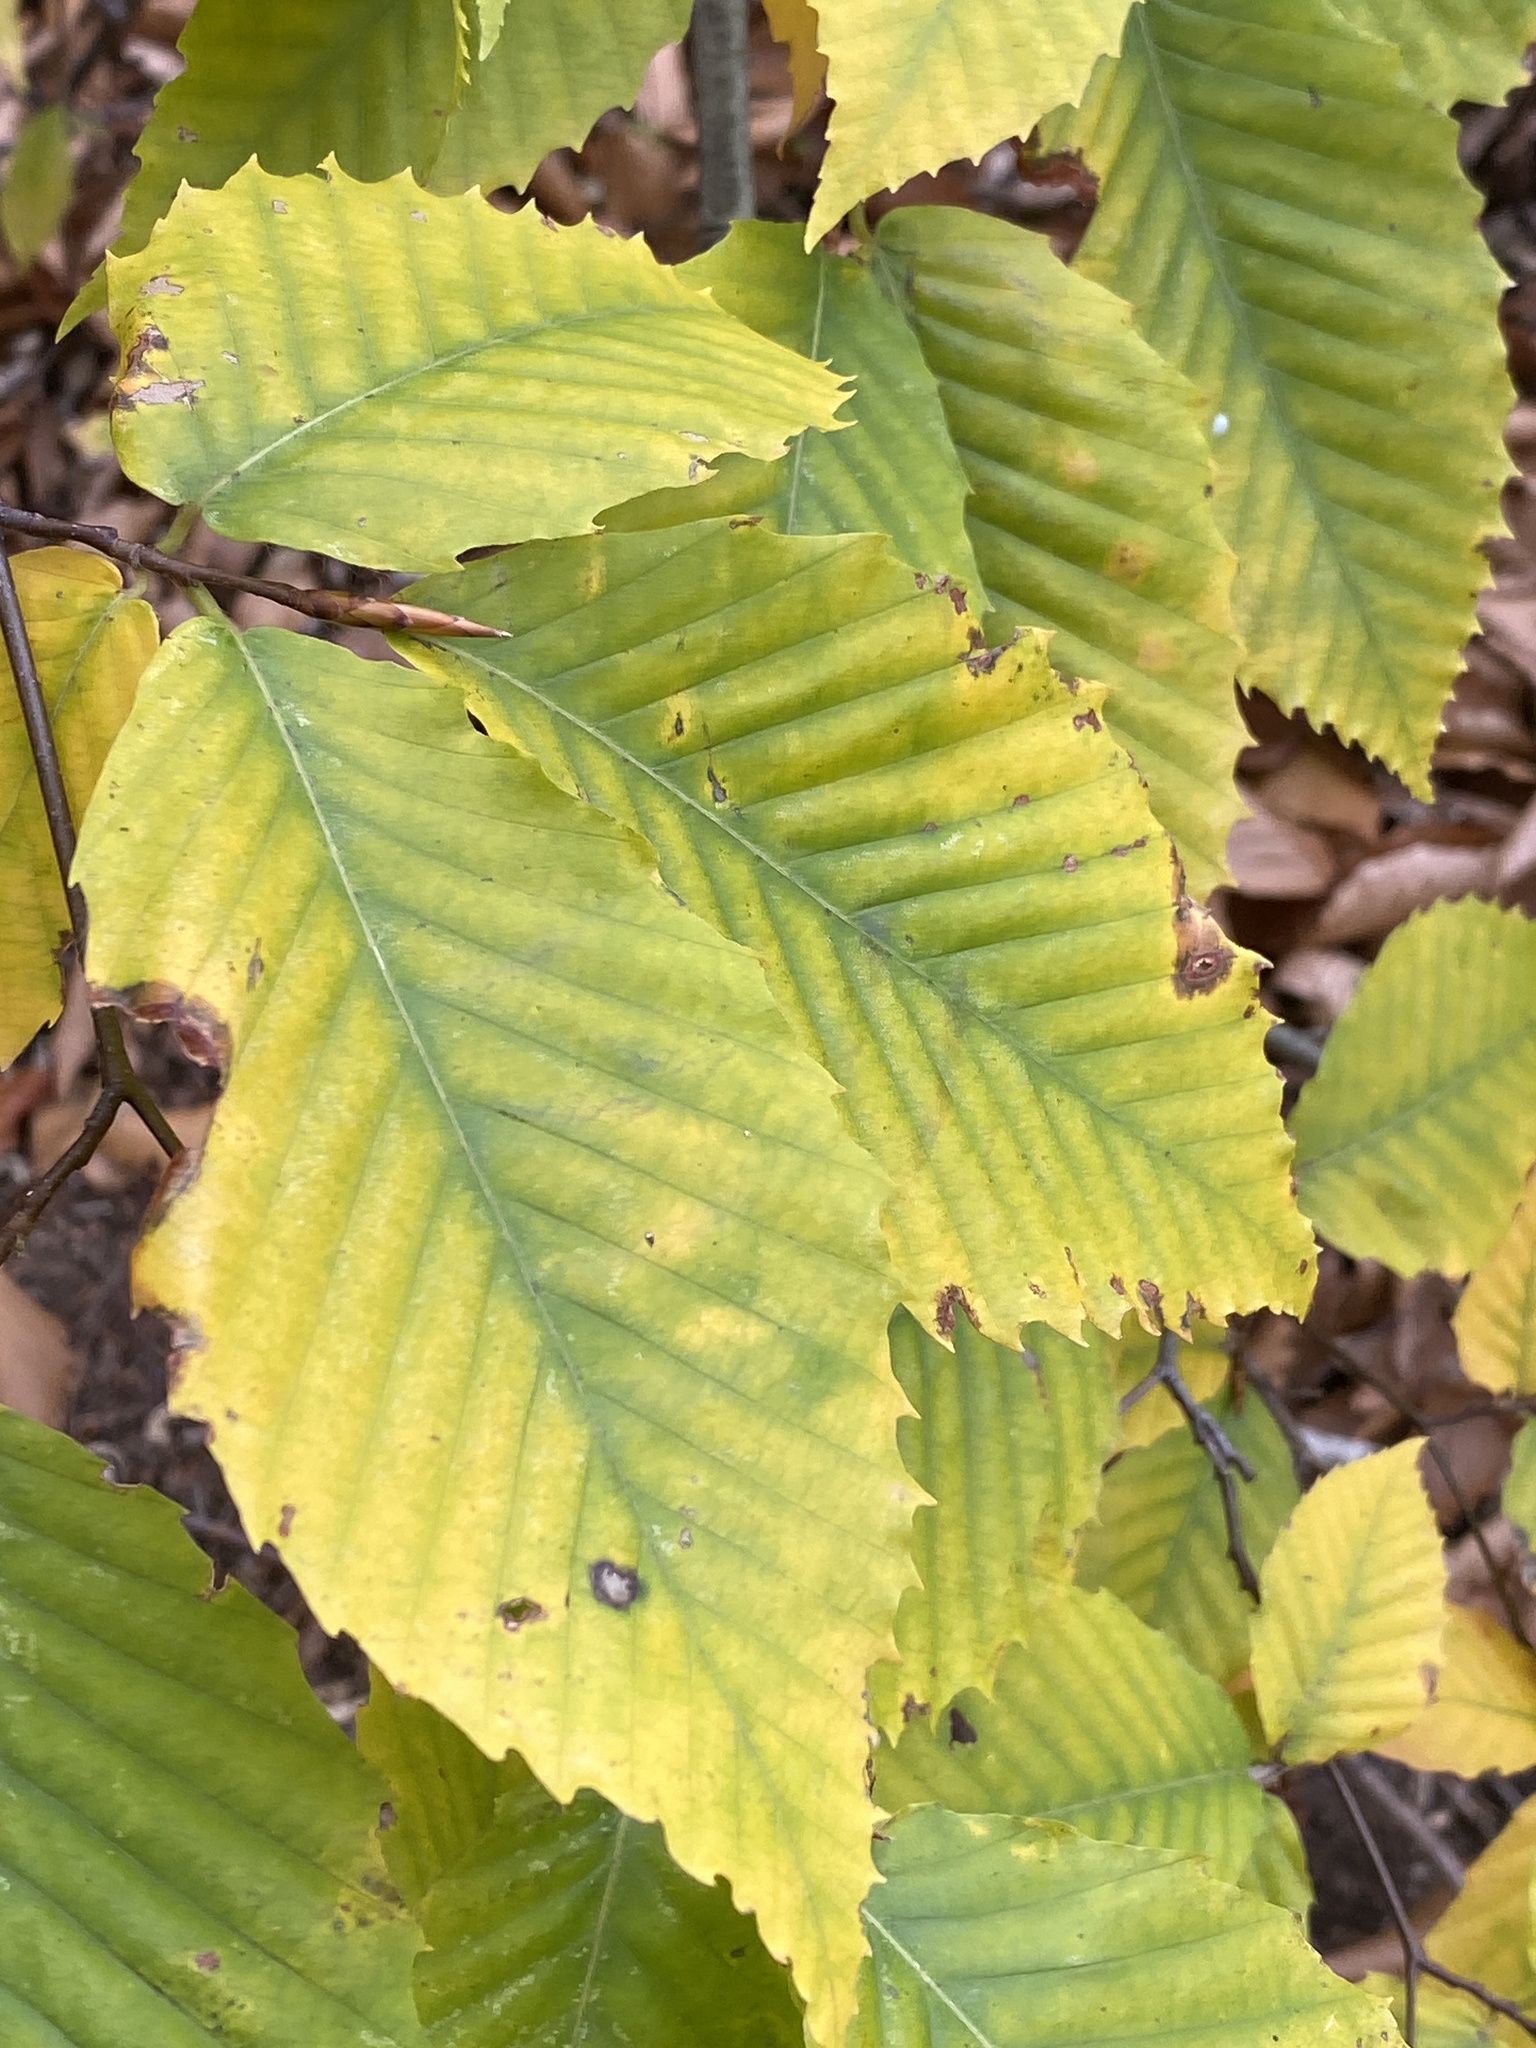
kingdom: Plantae
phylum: Tracheophyta
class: Magnoliopsida
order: Fagales
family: Fagaceae
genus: Fagus
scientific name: Fagus grandifolia
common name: American beech
